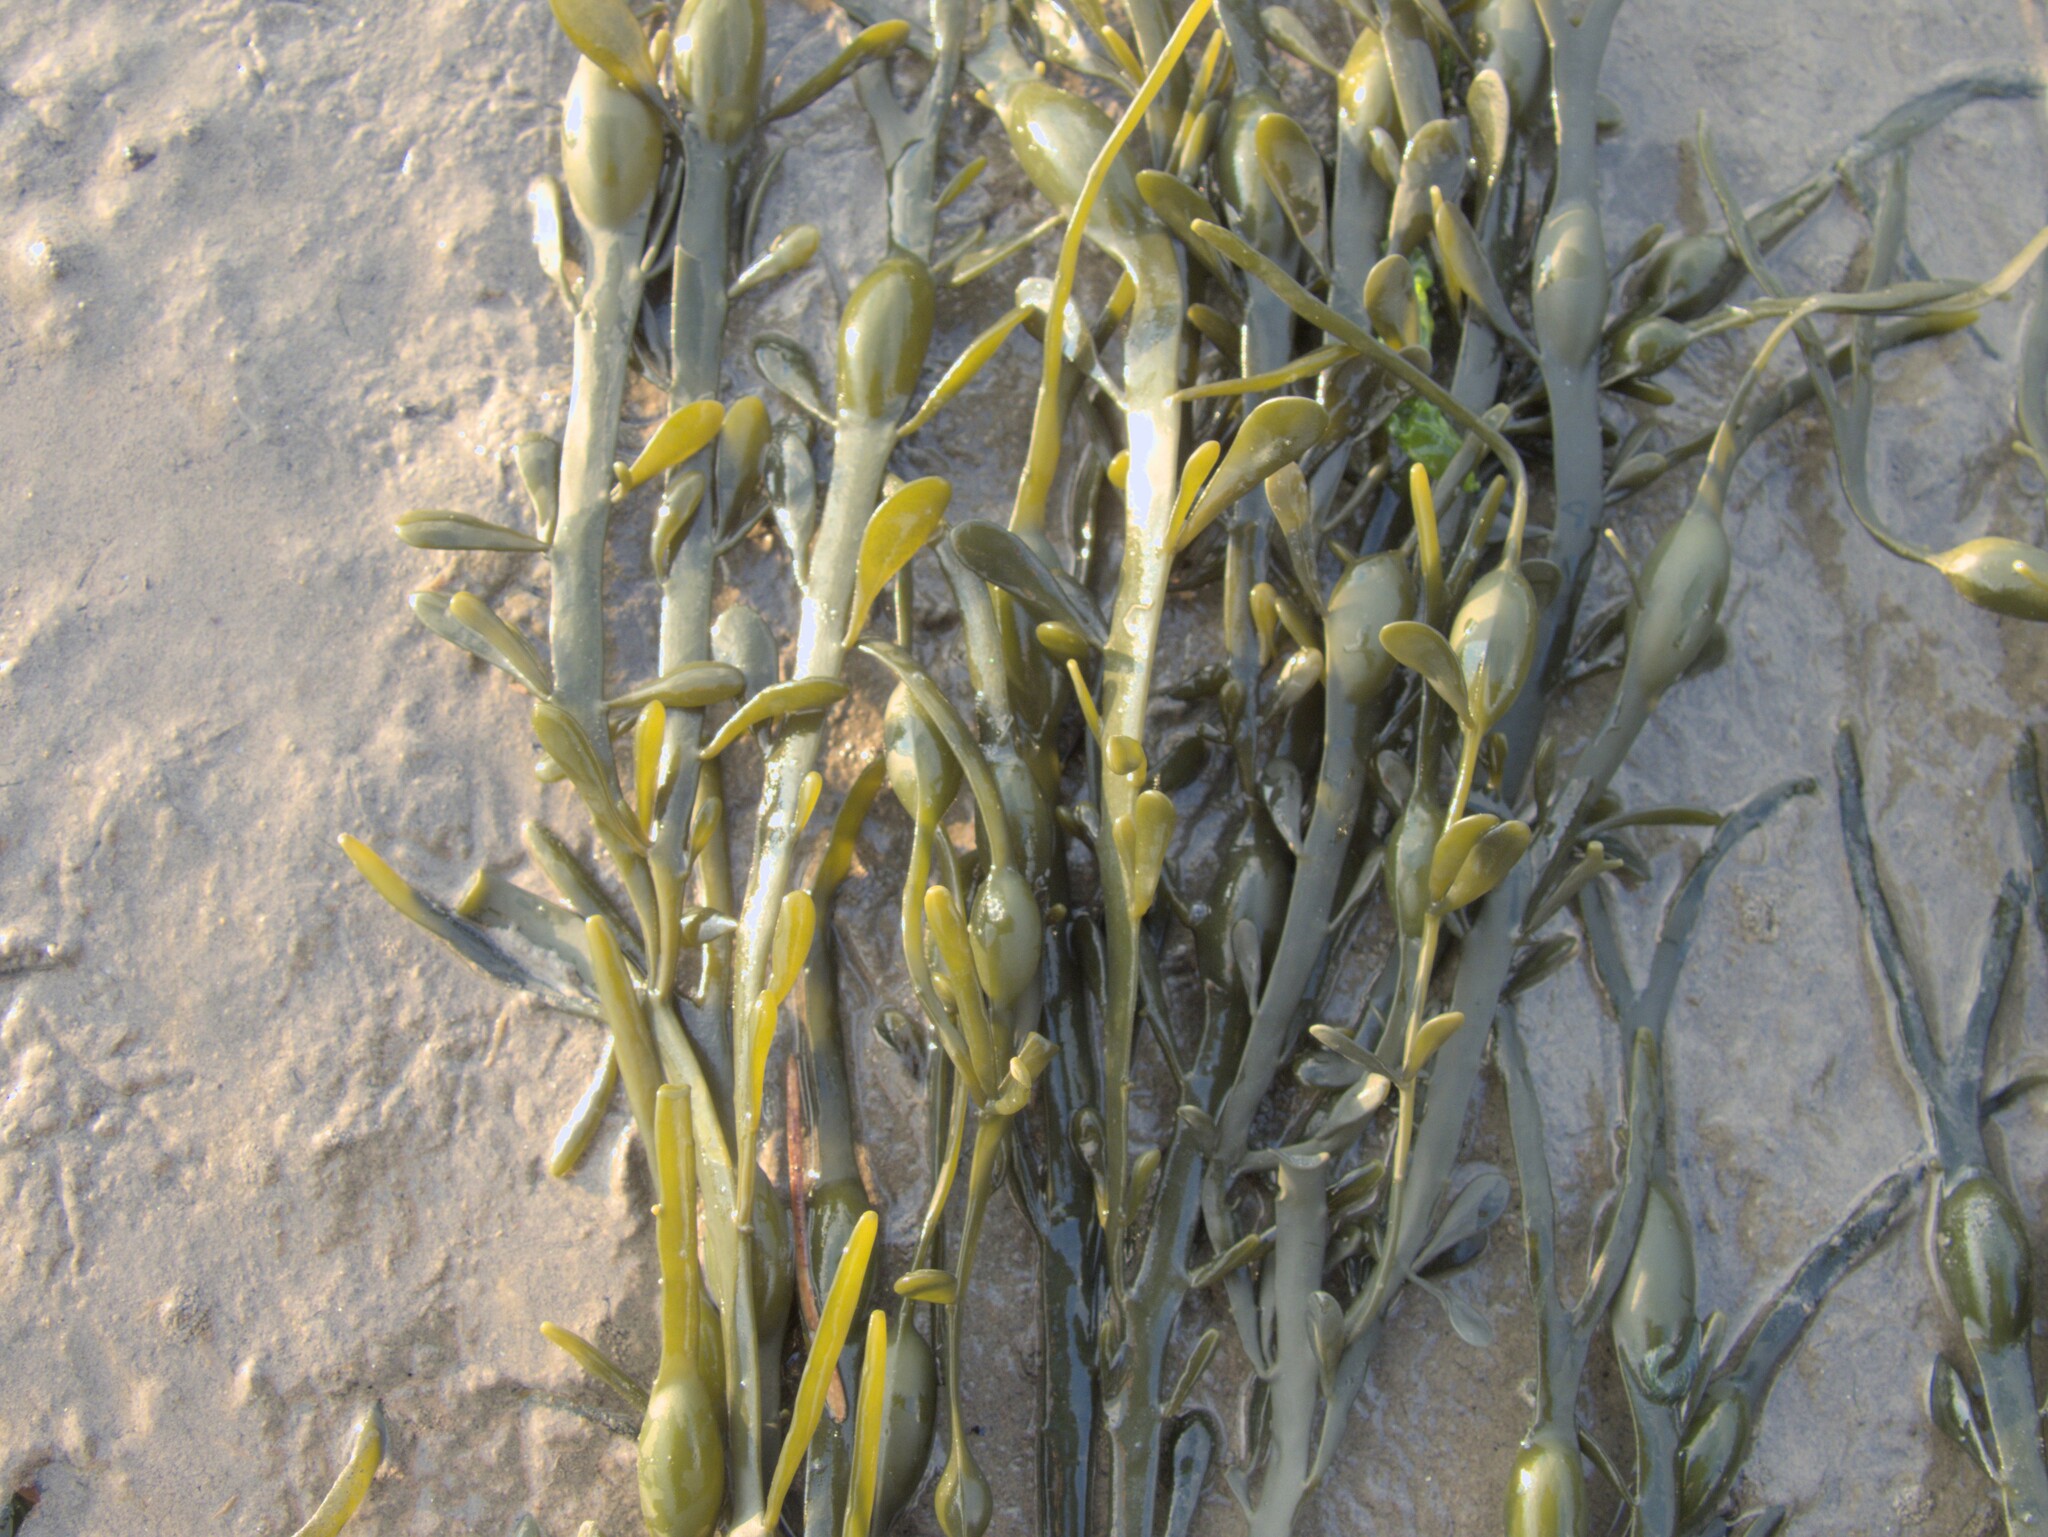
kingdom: Chromista
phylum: Ochrophyta
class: Phaeophyceae
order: Fucales
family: Fucaceae
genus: Ascophyllum
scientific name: Ascophyllum nodosum
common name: Knotted wrack
